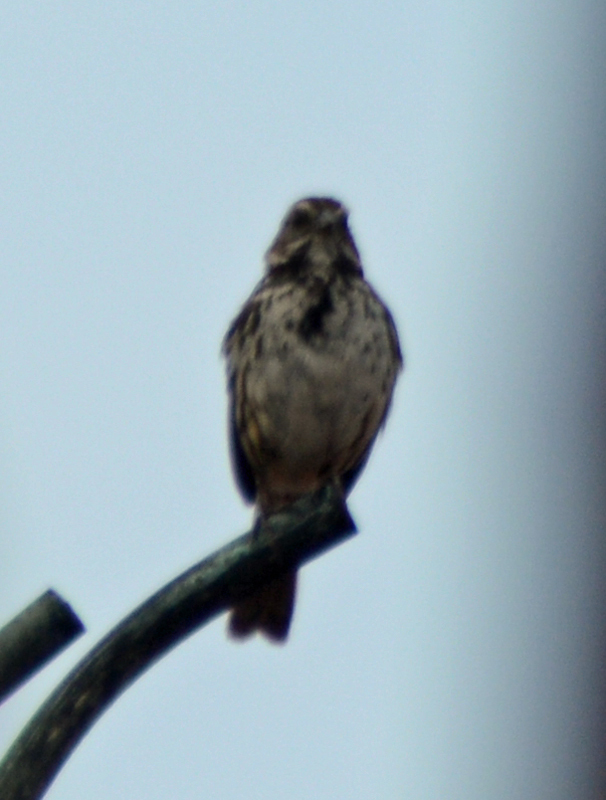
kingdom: Animalia
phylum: Chordata
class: Aves
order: Passeriformes
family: Passerellidae
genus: Melospiza
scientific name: Melospiza melodia
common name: Song sparrow
